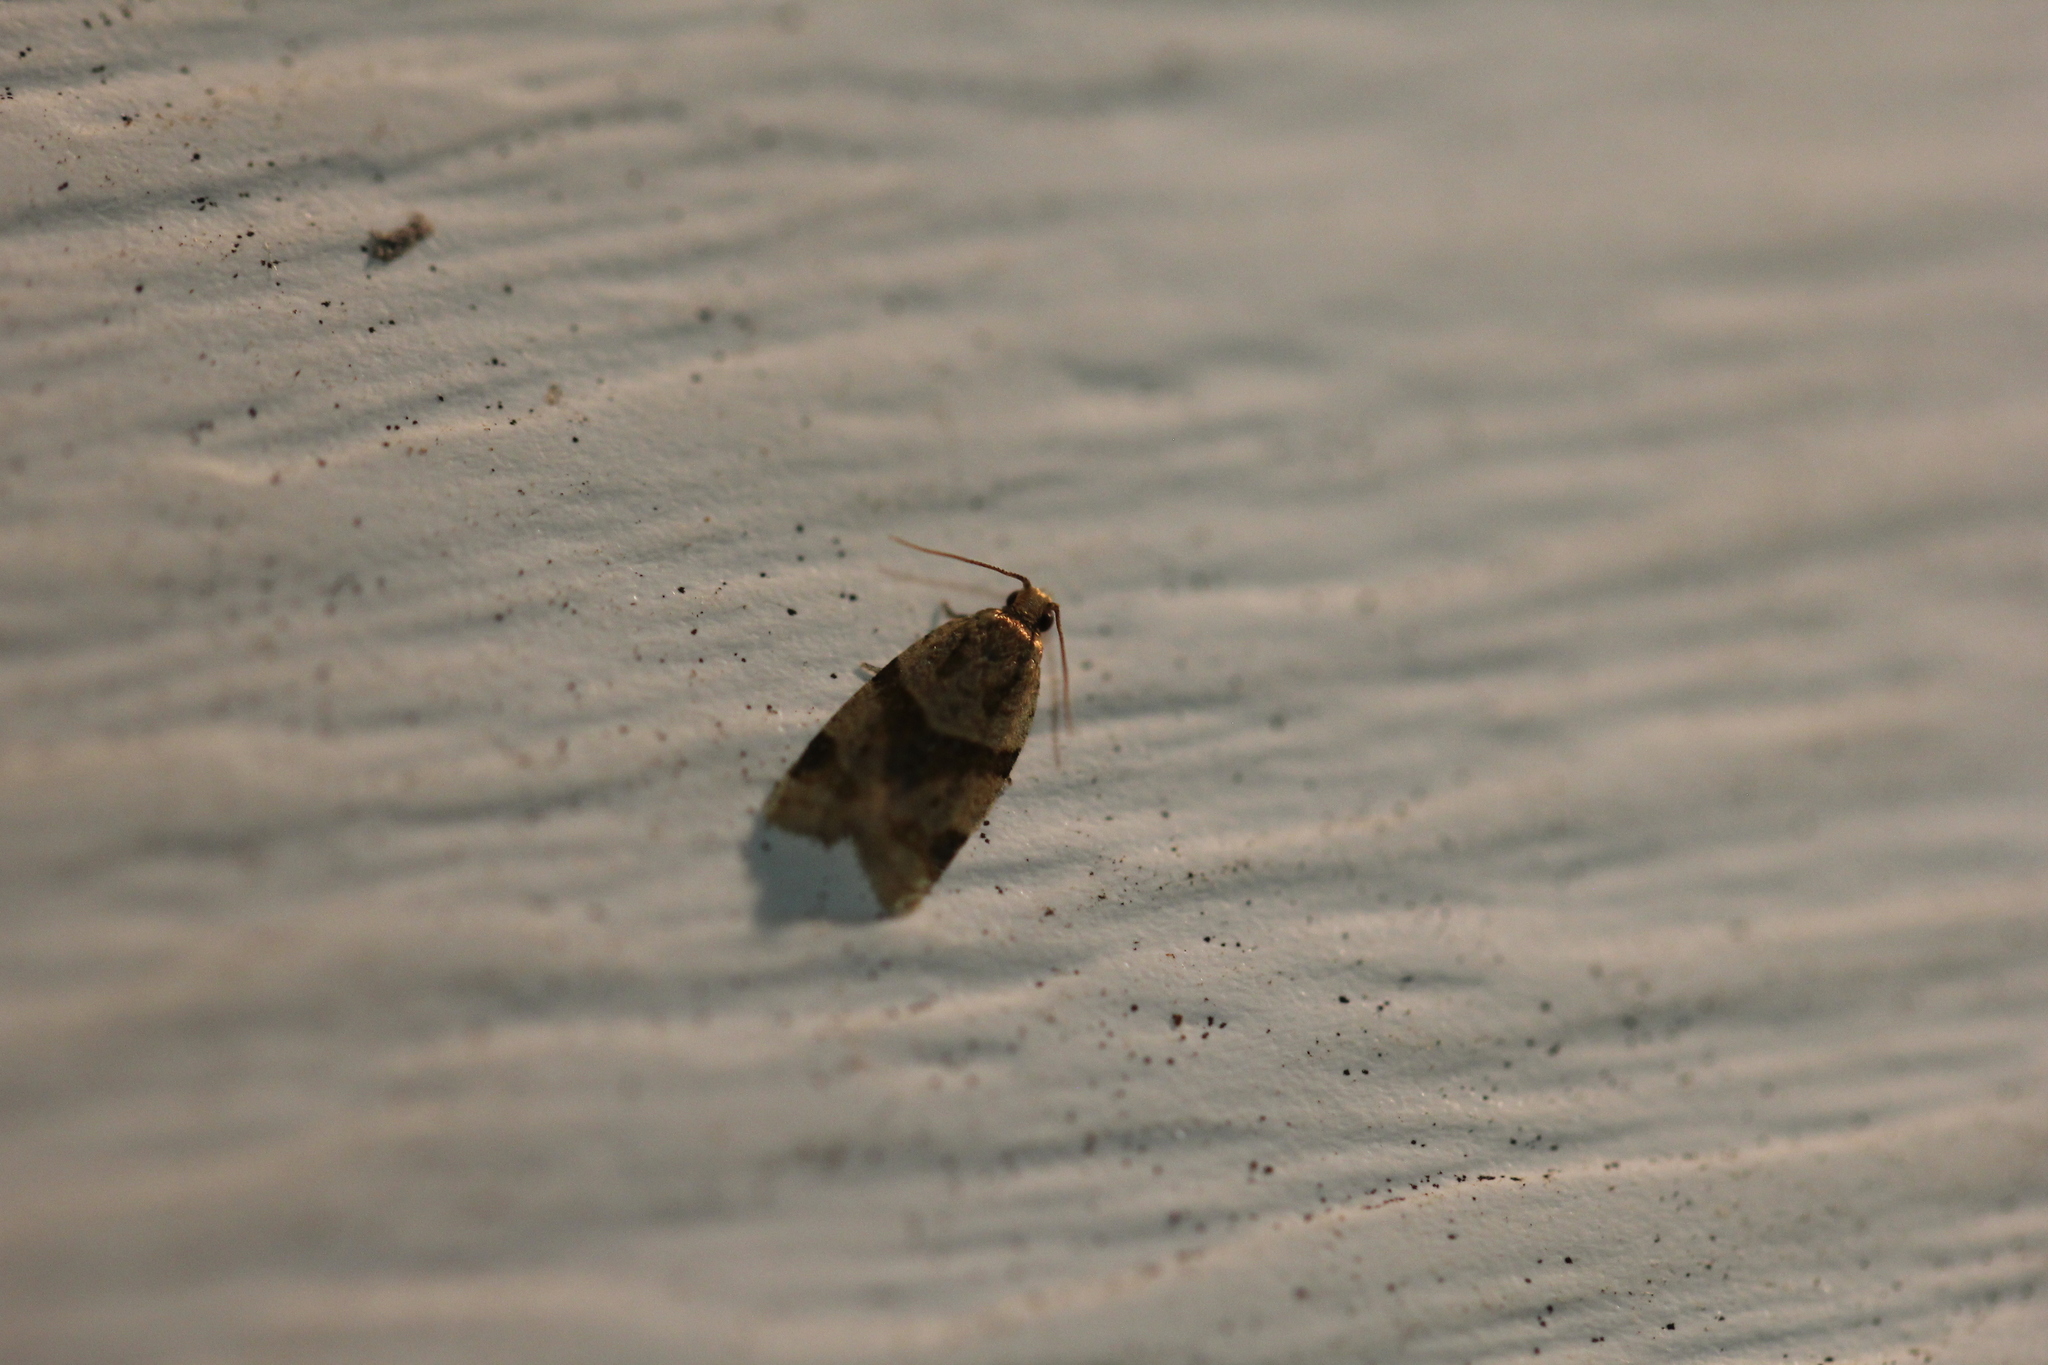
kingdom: Animalia
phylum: Arthropoda
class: Insecta
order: Lepidoptera
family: Tortricidae
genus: Clepsis
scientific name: Clepsis peritana
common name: Garden tortrix
